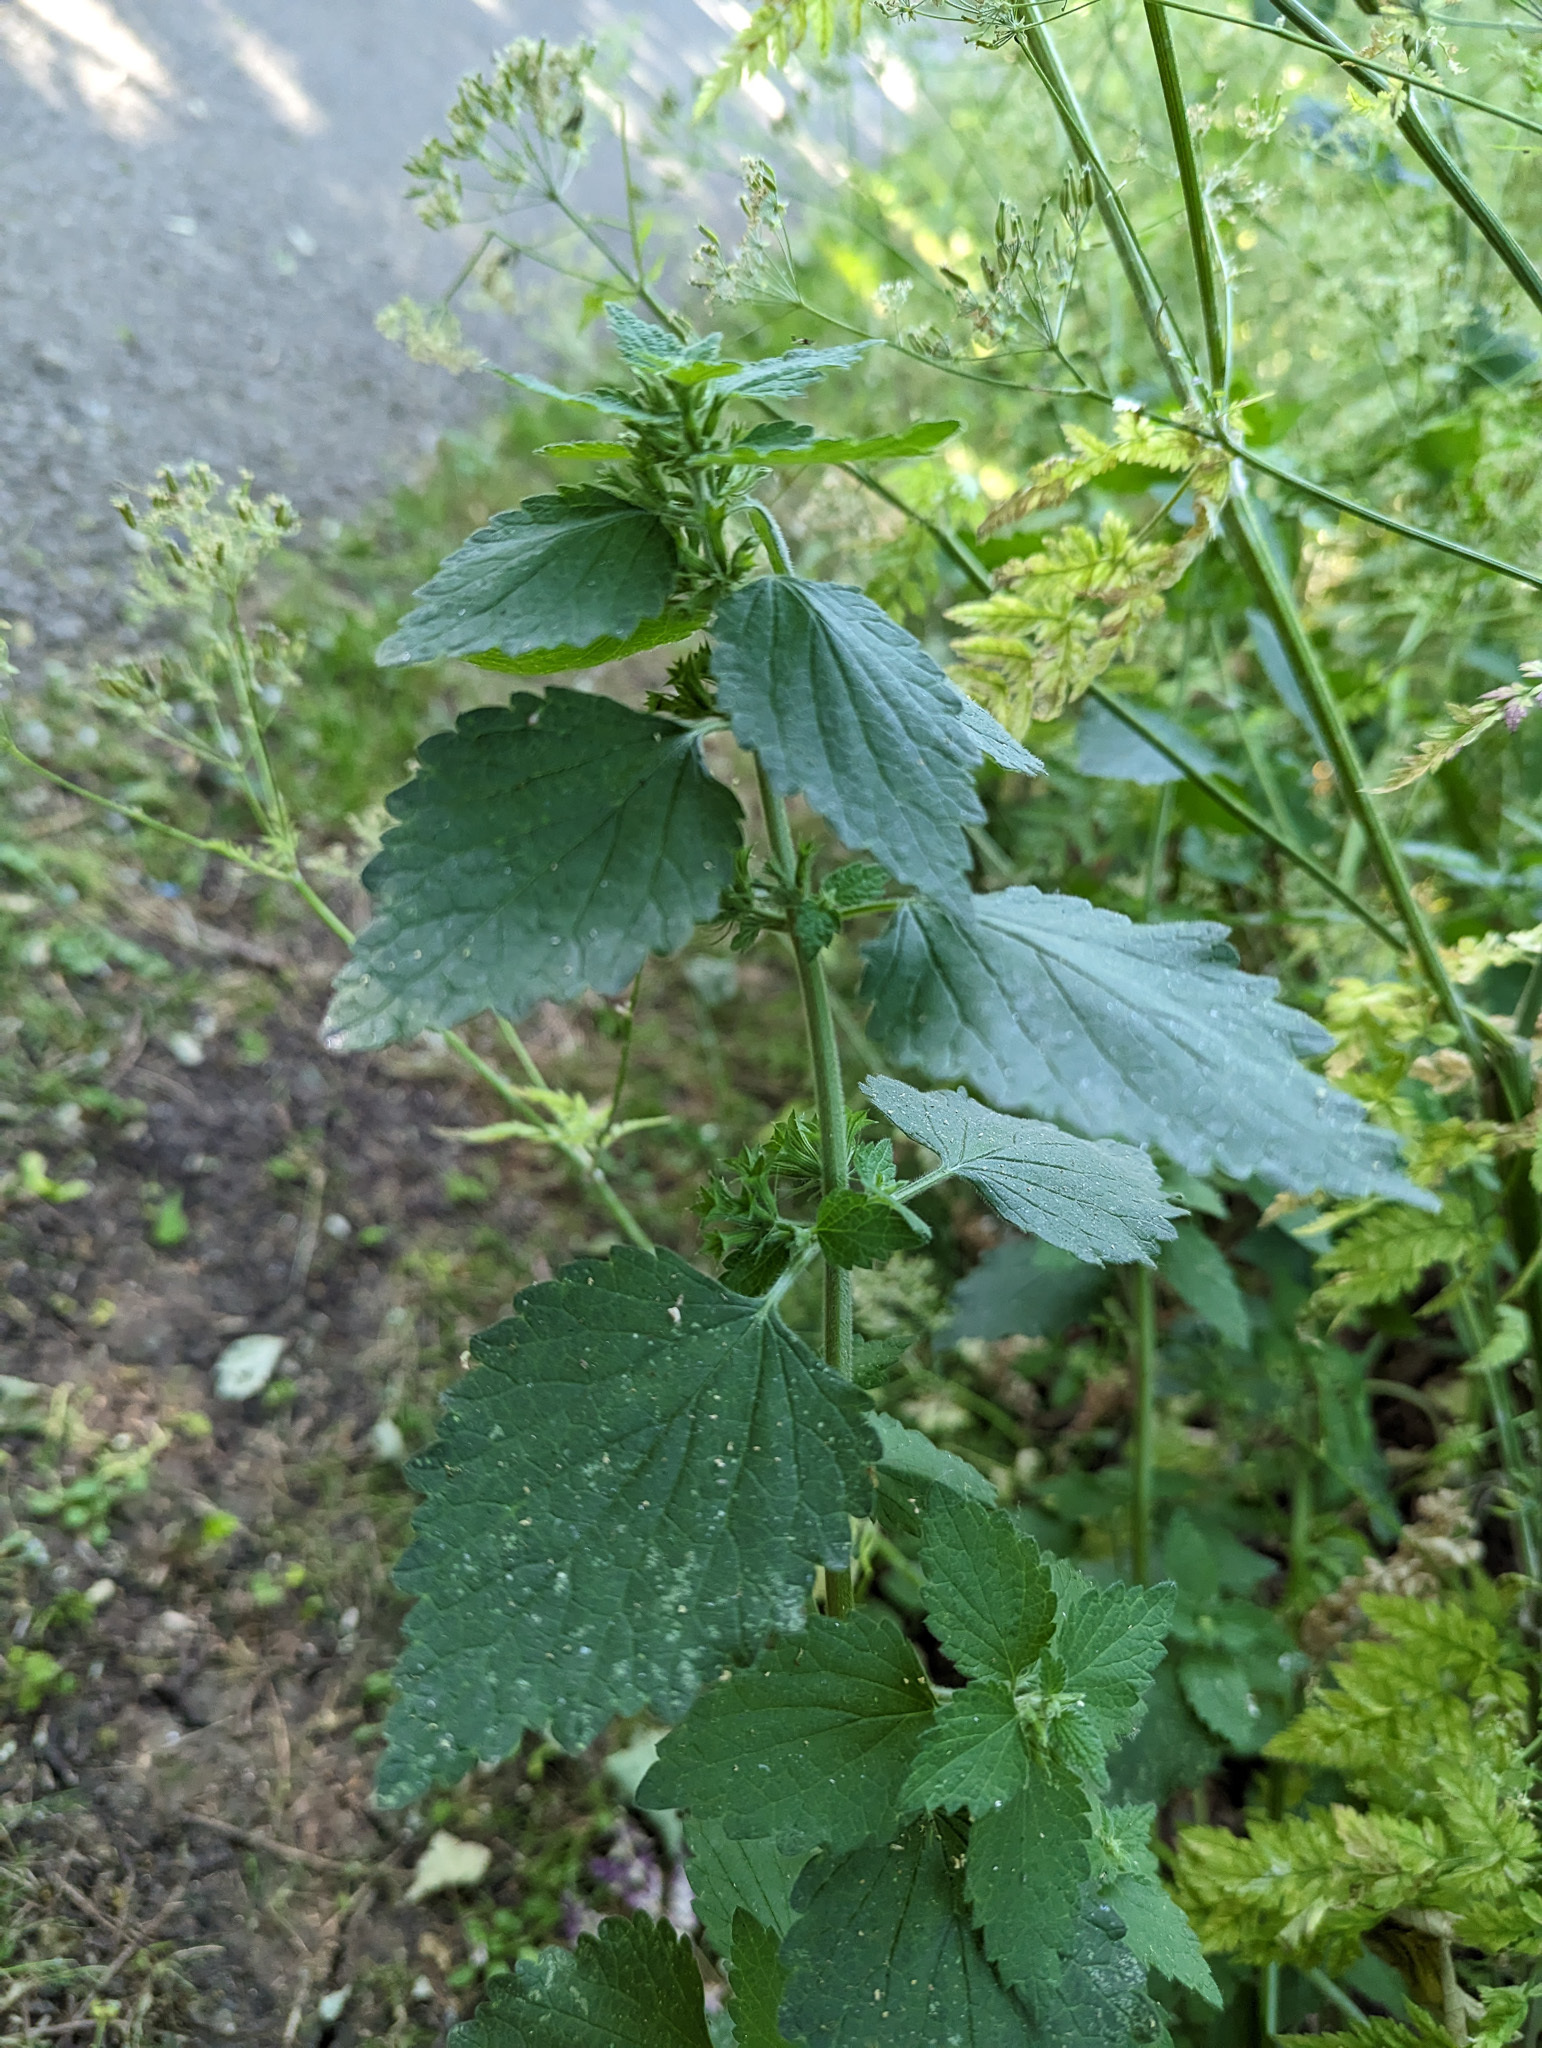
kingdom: Plantae
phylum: Tracheophyta
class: Magnoliopsida
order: Lamiales
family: Lamiaceae
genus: Ballota
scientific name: Ballota nigra
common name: Black horehound
